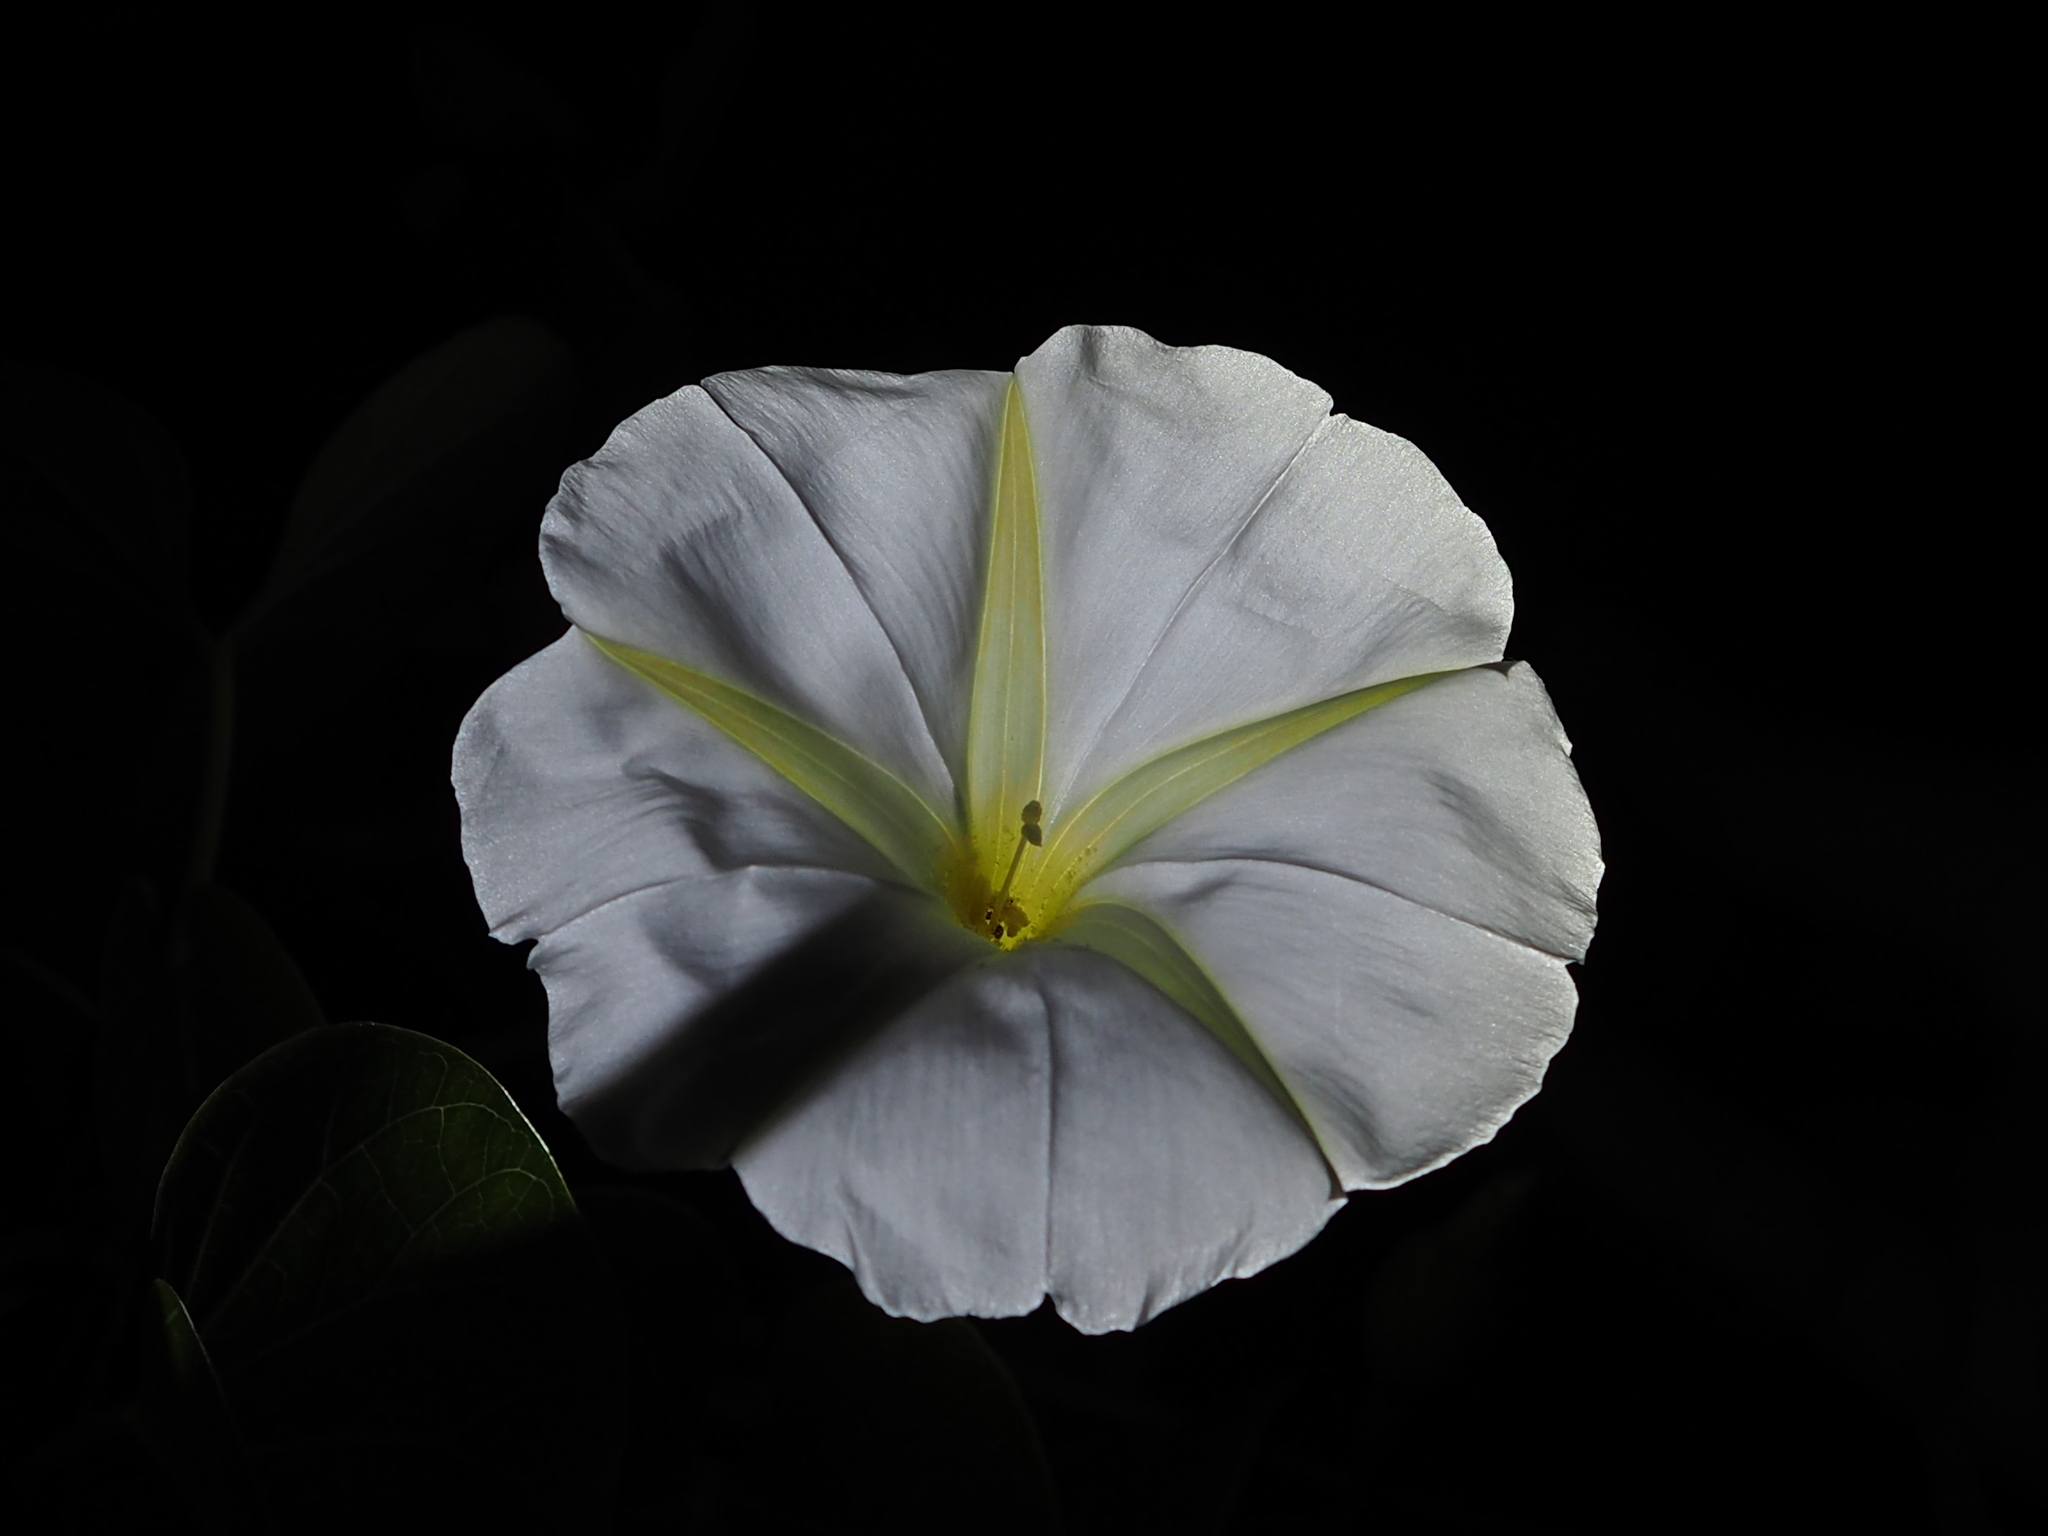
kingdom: Plantae
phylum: Tracheophyta
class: Magnoliopsida
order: Solanales
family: Convolvulaceae
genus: Ipomoea
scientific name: Ipomoea violacea
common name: Beach moonflower
